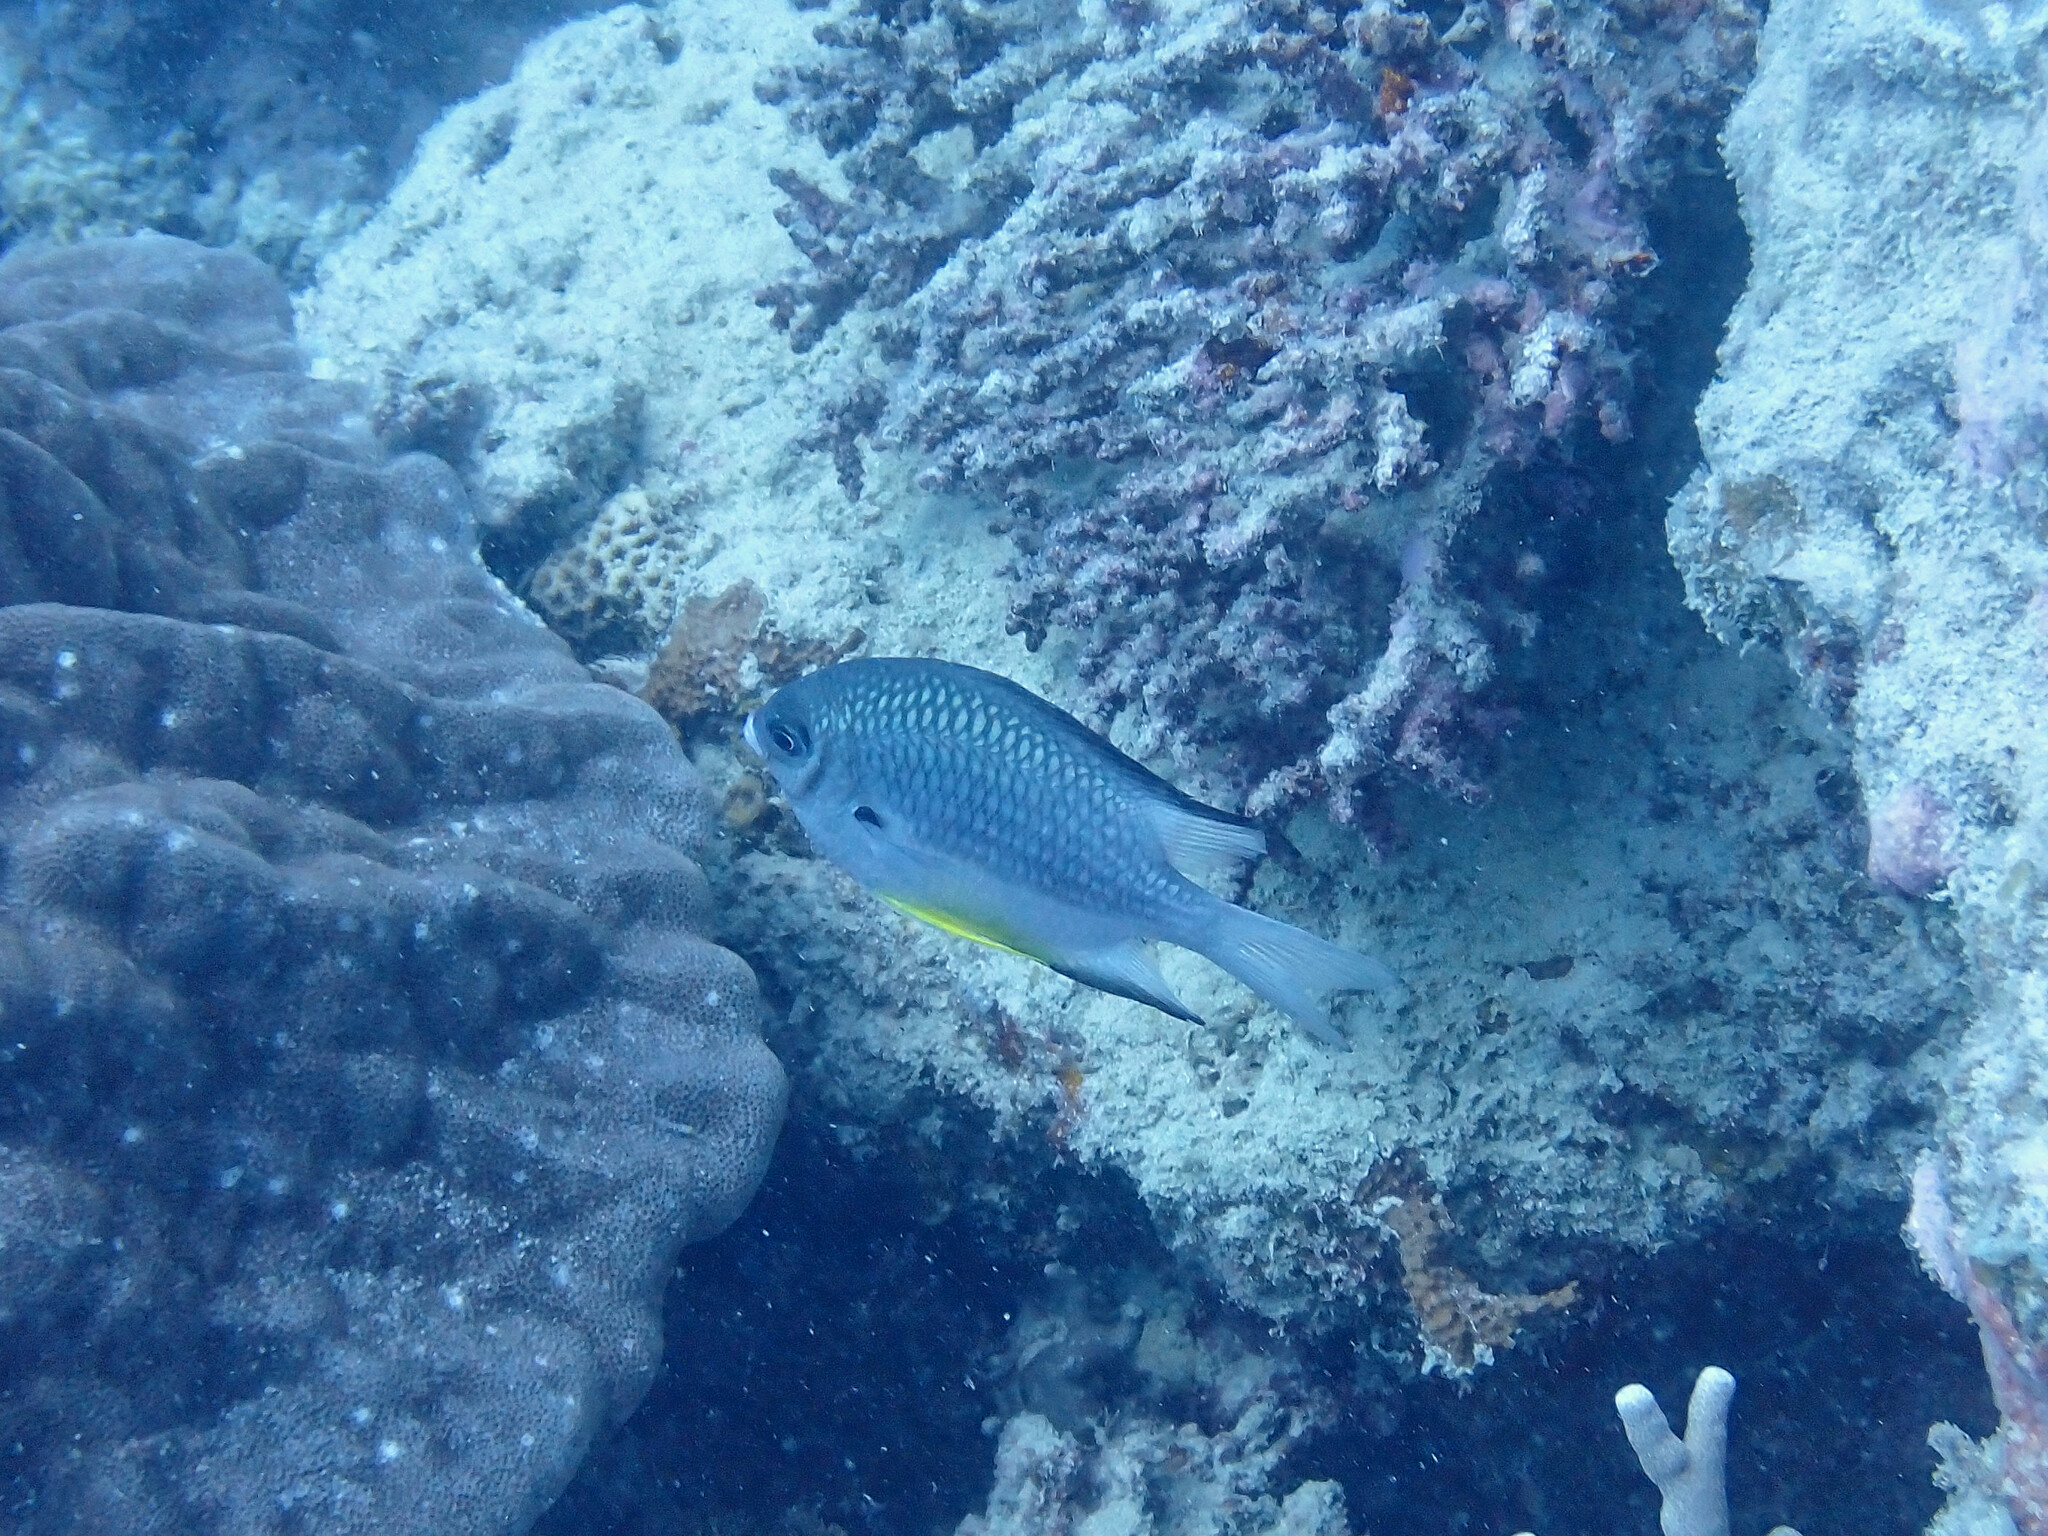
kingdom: Animalia
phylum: Chordata
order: Perciformes
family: Pomacentridae
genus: Amblyglyphidodon
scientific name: Amblyglyphidodon leucogaster
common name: White-belly damsel
